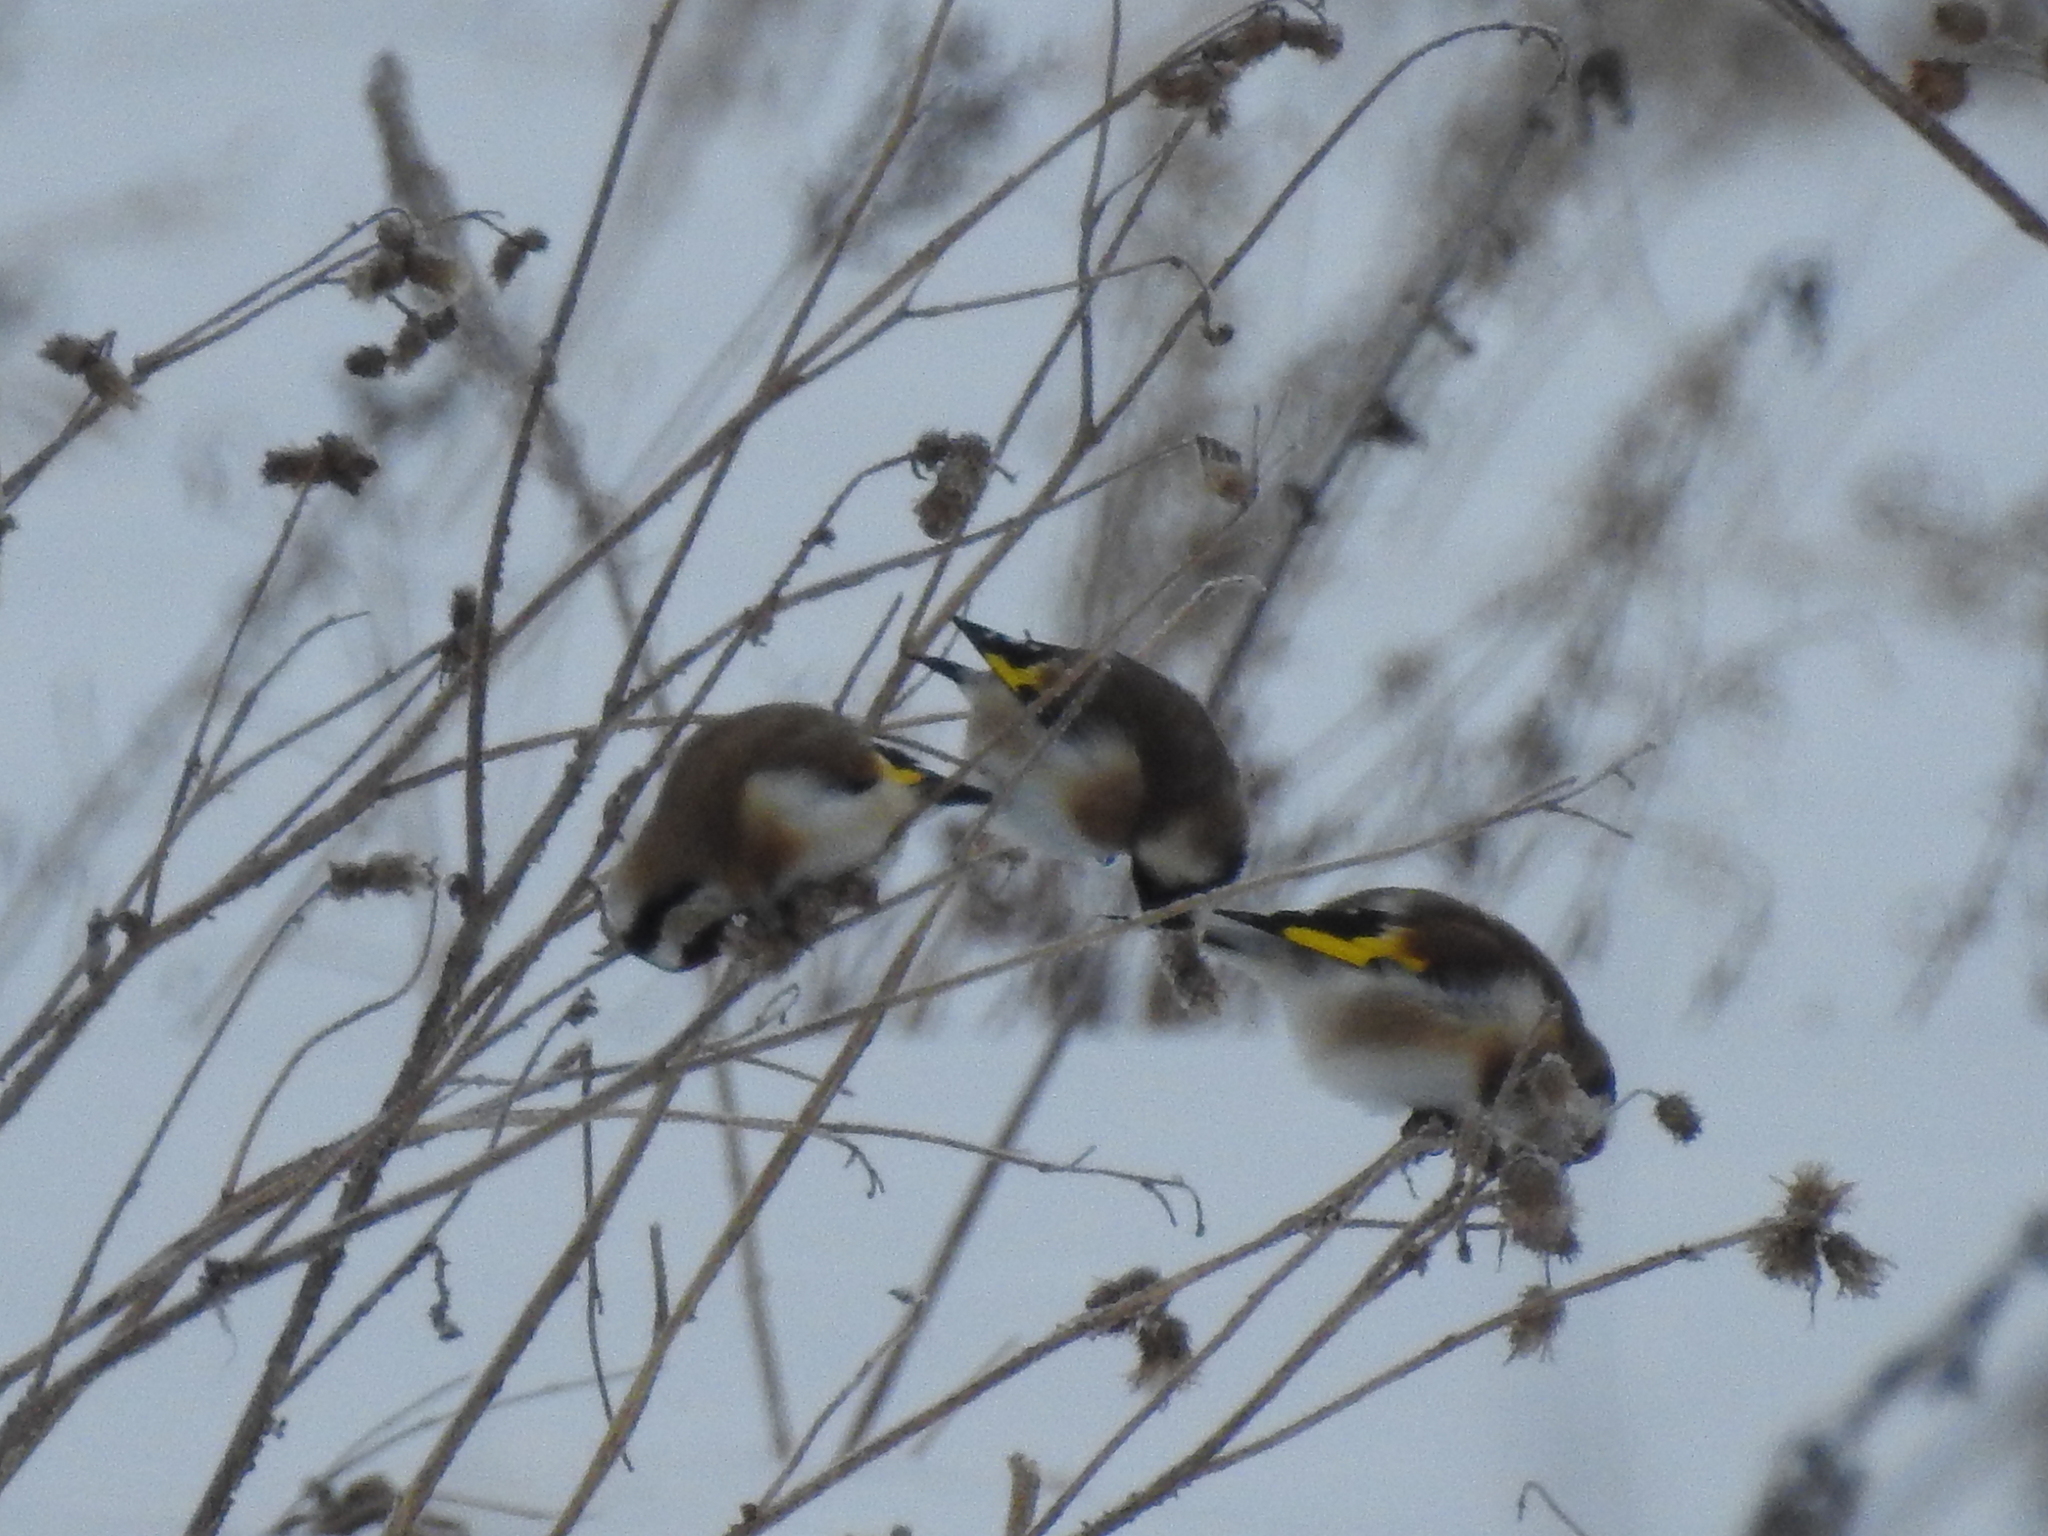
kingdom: Animalia
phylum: Chordata
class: Aves
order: Passeriformes
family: Fringillidae
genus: Carduelis
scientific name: Carduelis carduelis
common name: European goldfinch
